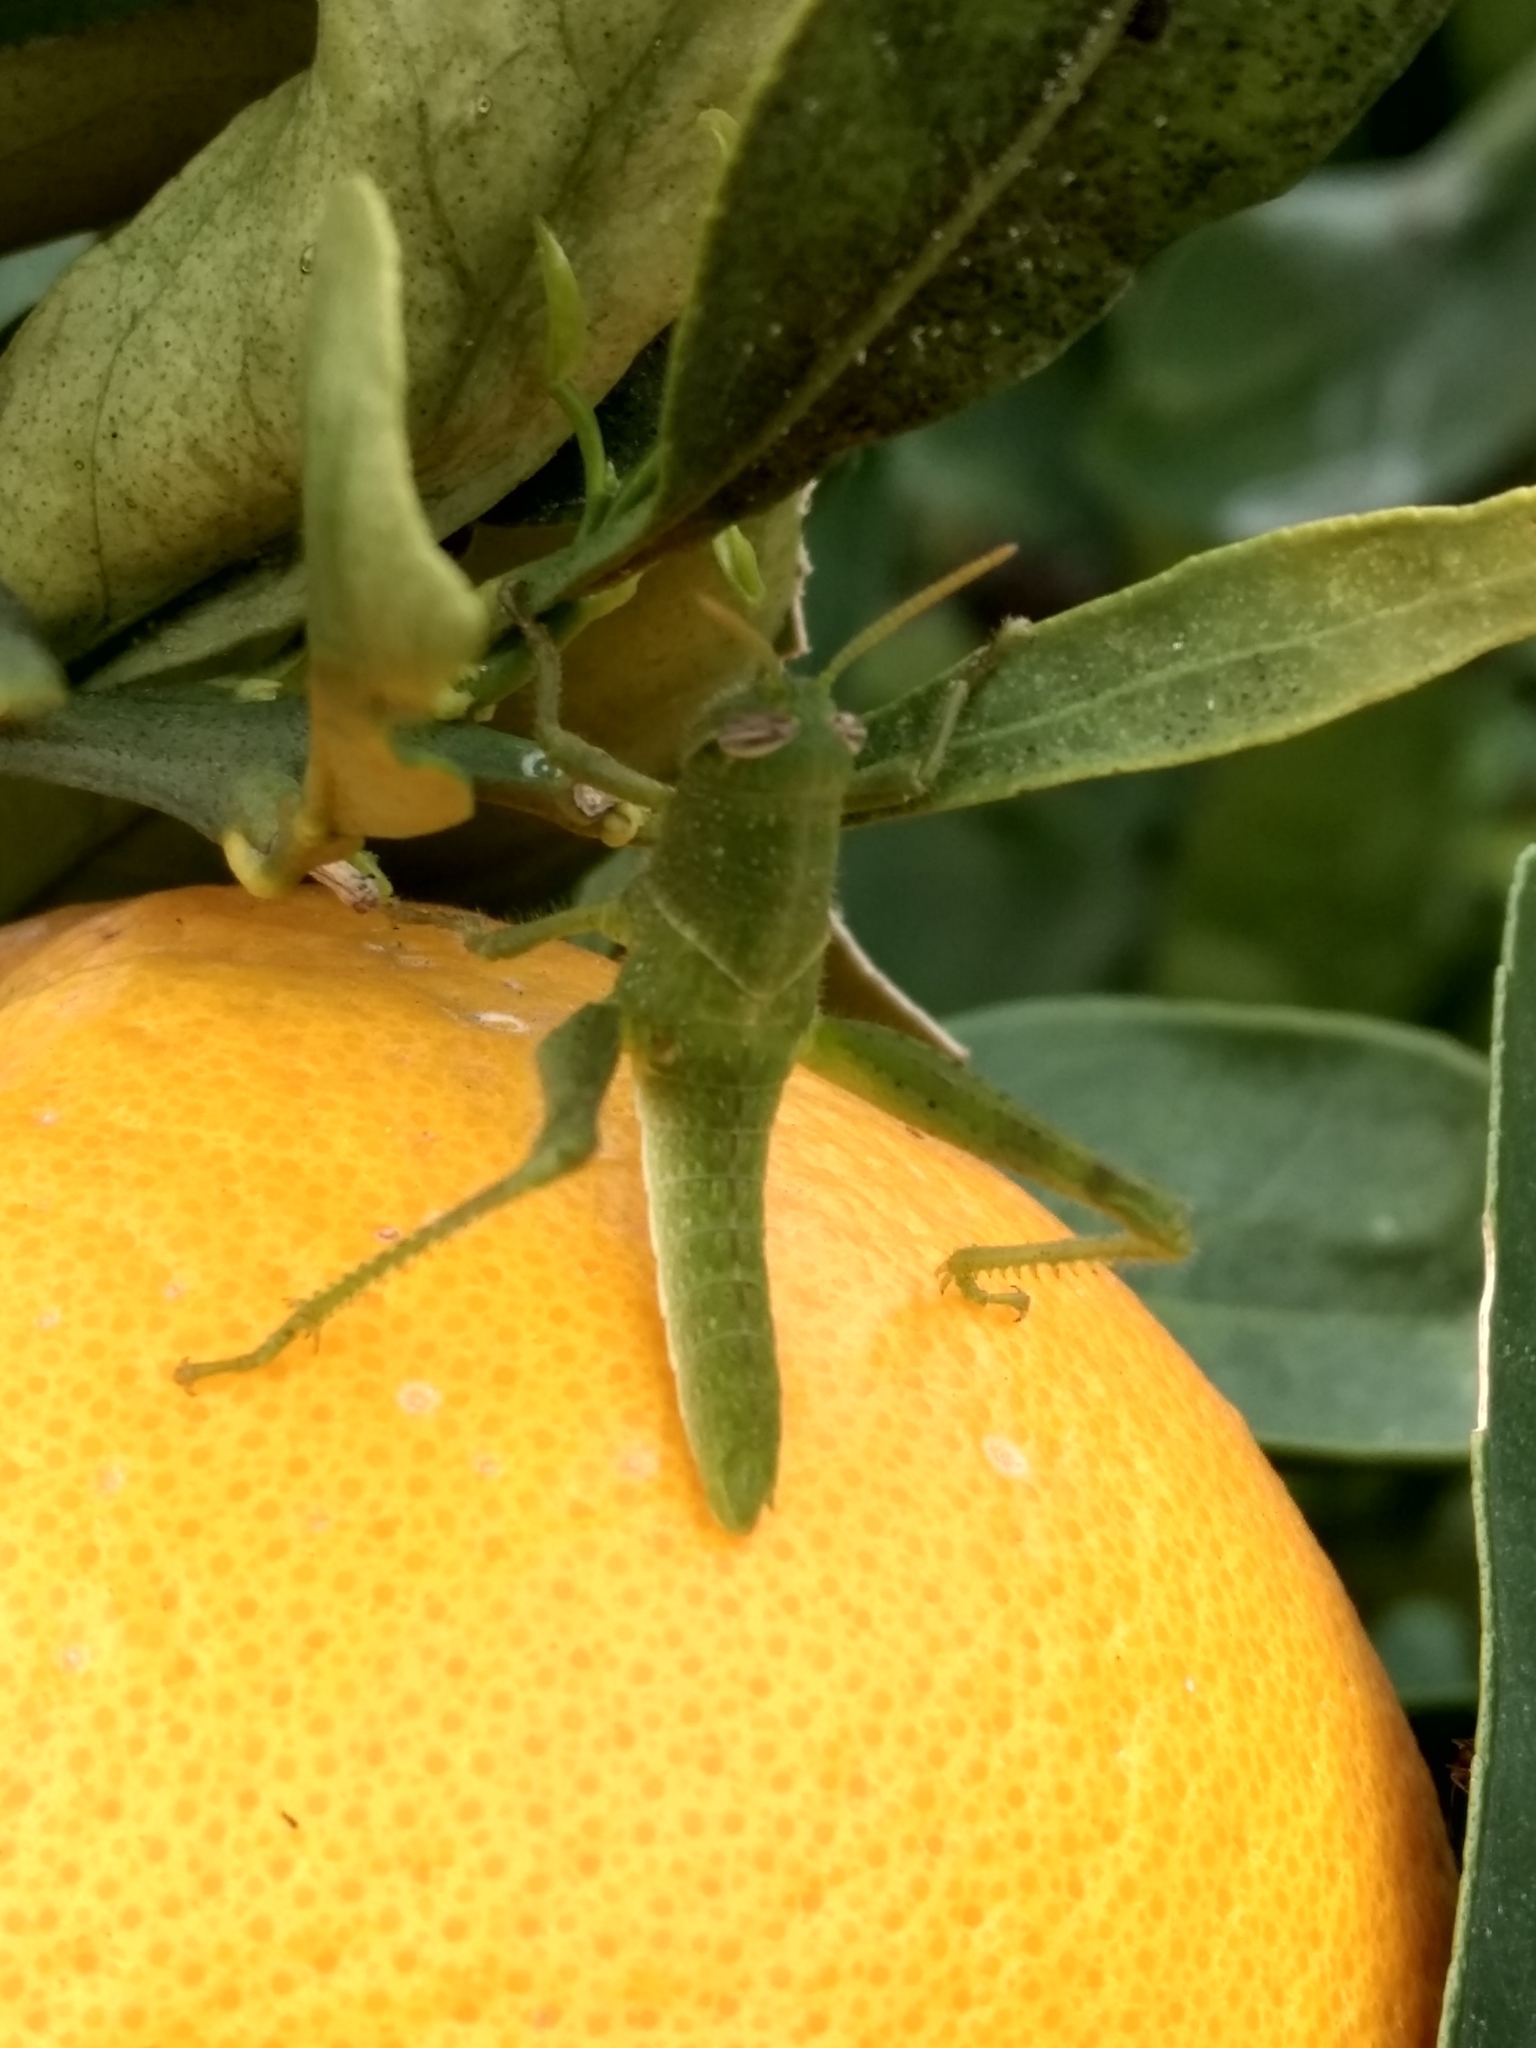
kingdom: Animalia
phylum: Arthropoda
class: Insecta
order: Orthoptera
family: Acrididae
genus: Schistocerca
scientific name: Schistocerca nitens
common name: Vagrant grasshopper
